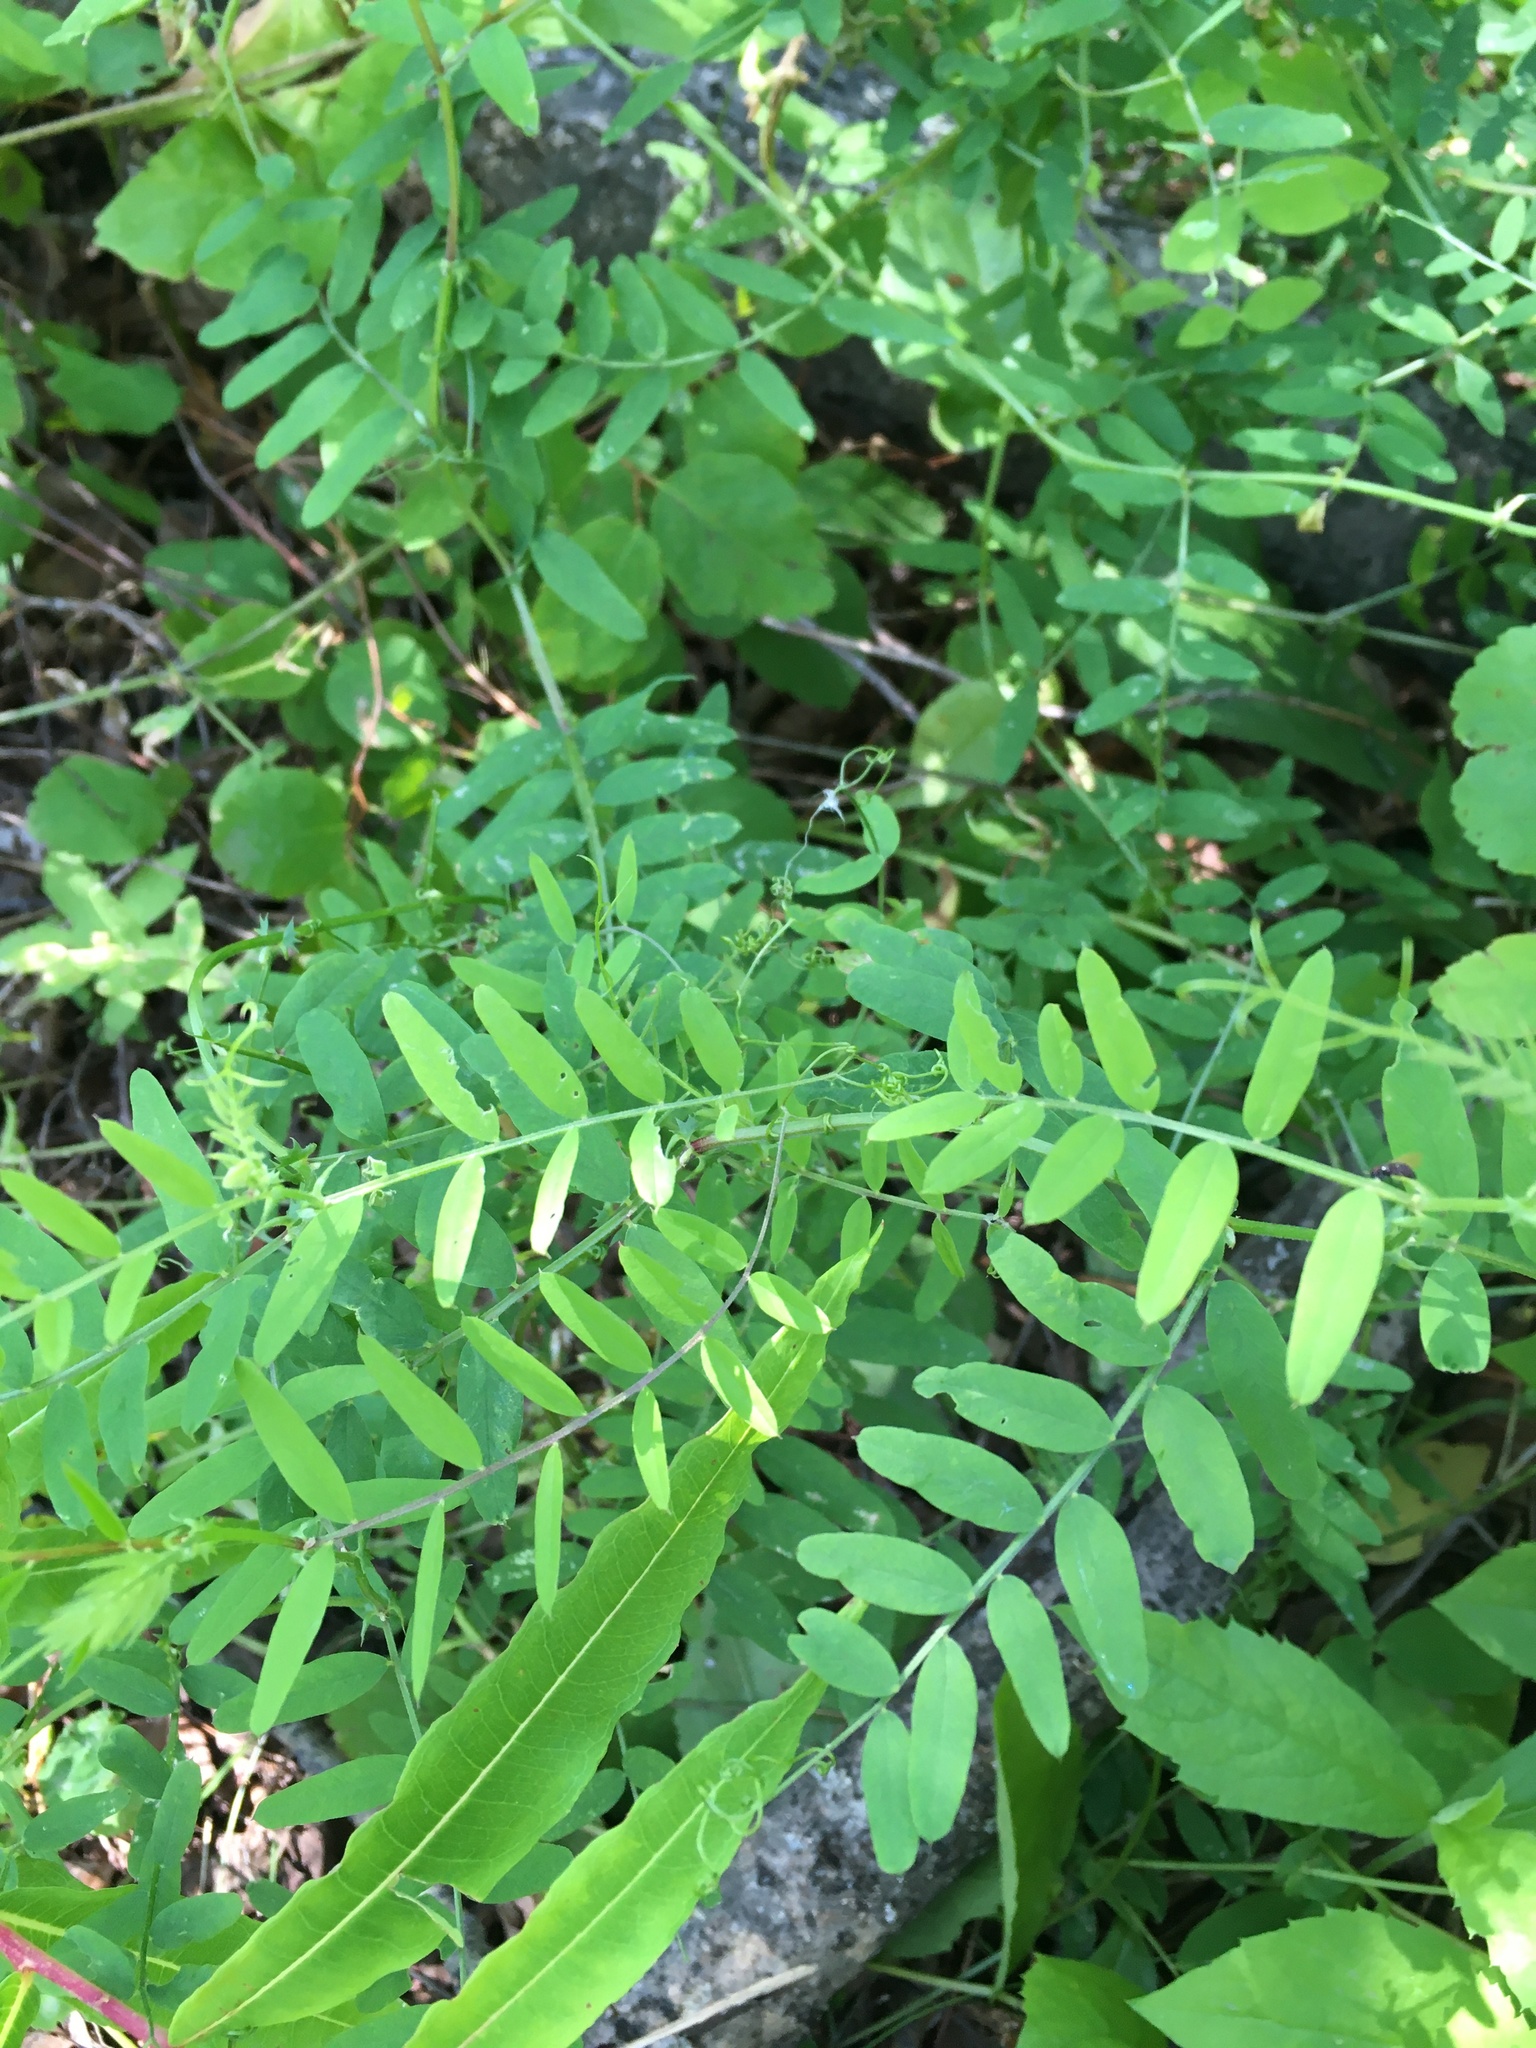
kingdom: Plantae
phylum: Tracheophyta
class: Magnoliopsida
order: Fabales
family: Fabaceae
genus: Vicia
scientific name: Vicia americana
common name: American vetch
